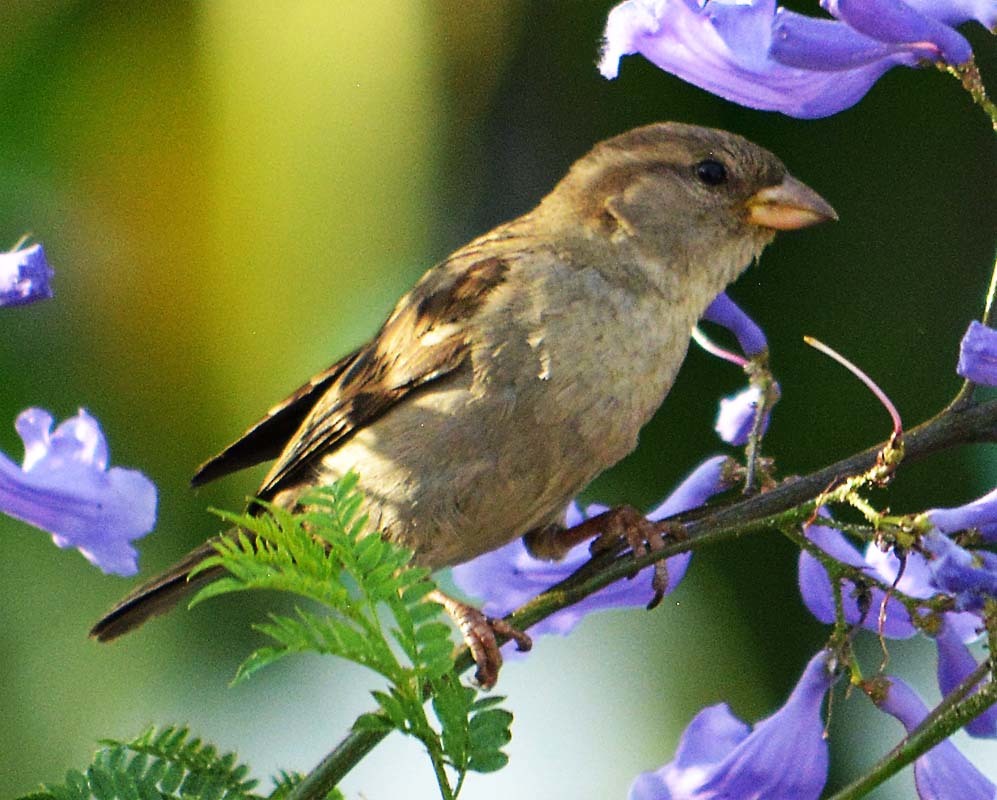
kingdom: Animalia
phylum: Chordata
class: Aves
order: Passeriformes
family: Passeridae
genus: Passer
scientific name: Passer domesticus
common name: House sparrow
